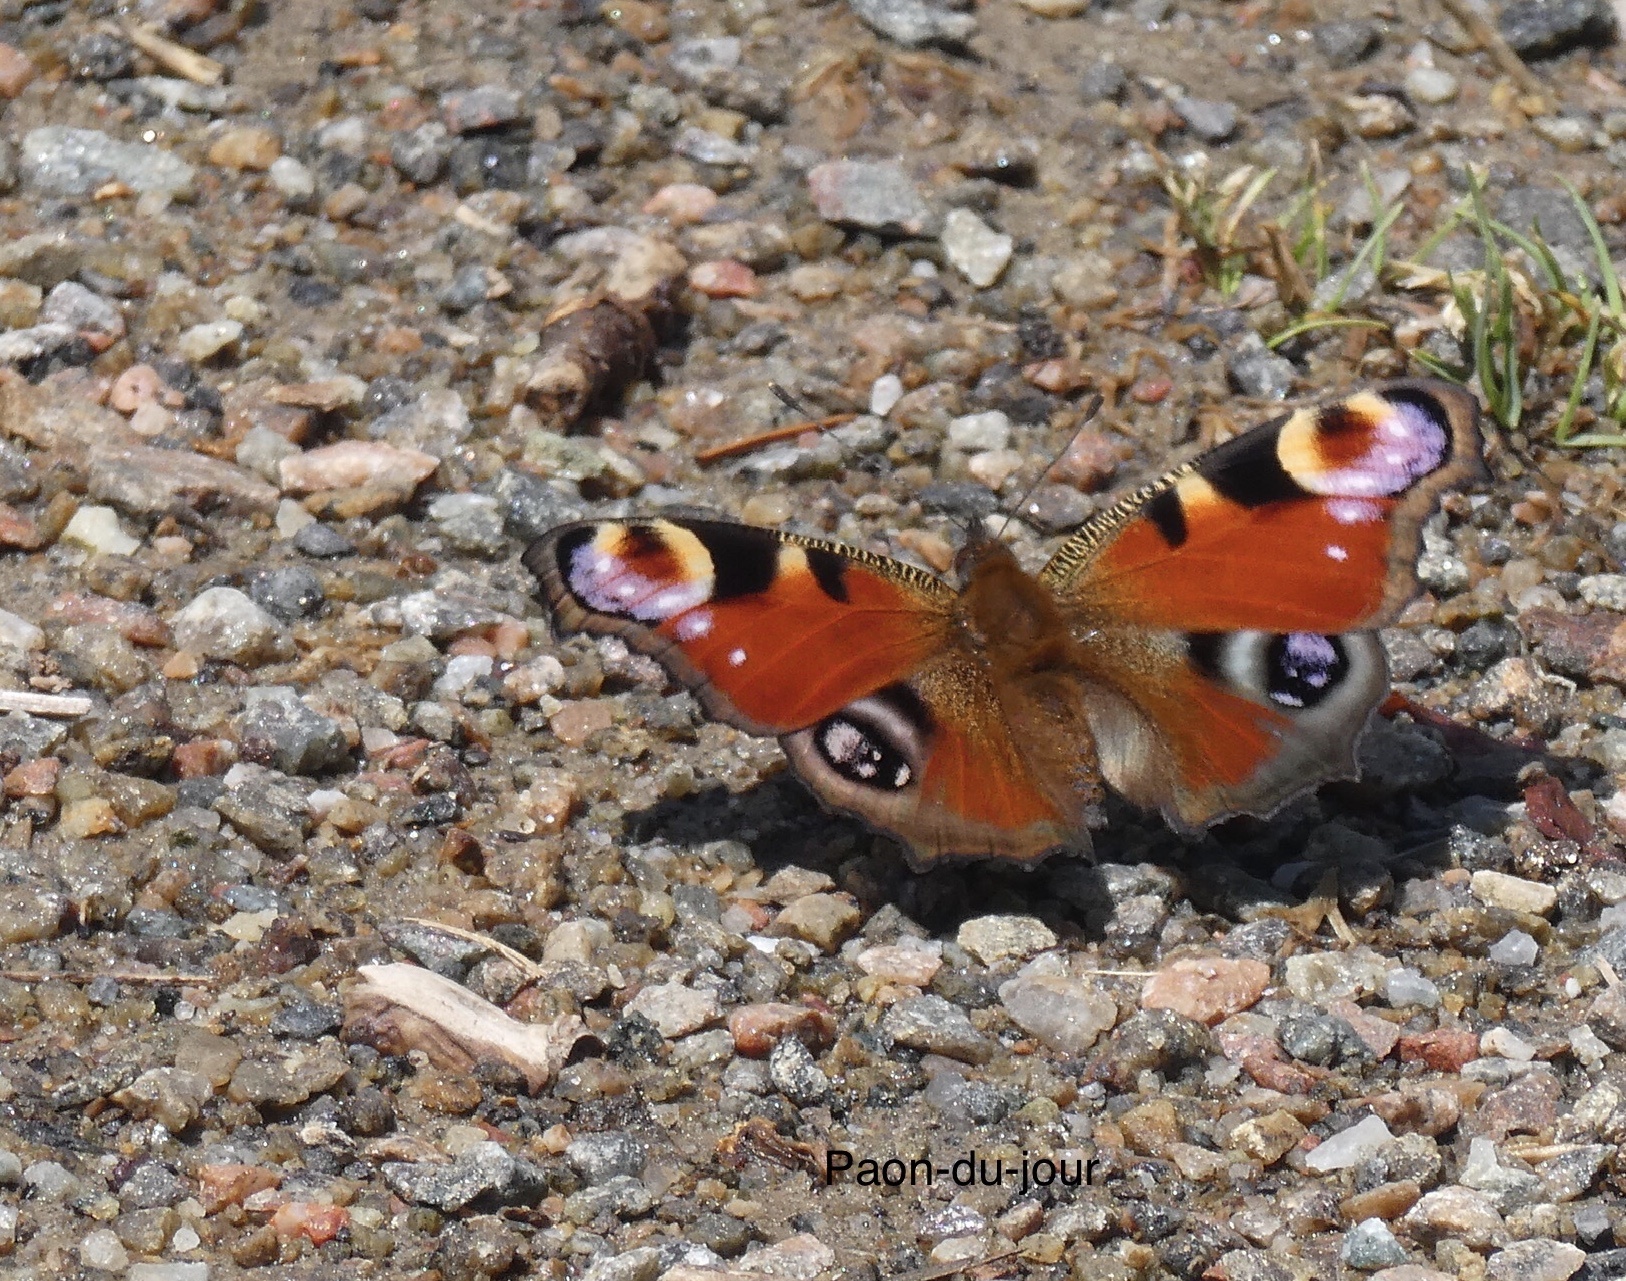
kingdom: Animalia
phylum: Arthropoda
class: Insecta
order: Lepidoptera
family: Nymphalidae
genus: Aglais
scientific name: Aglais io
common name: Peacock
